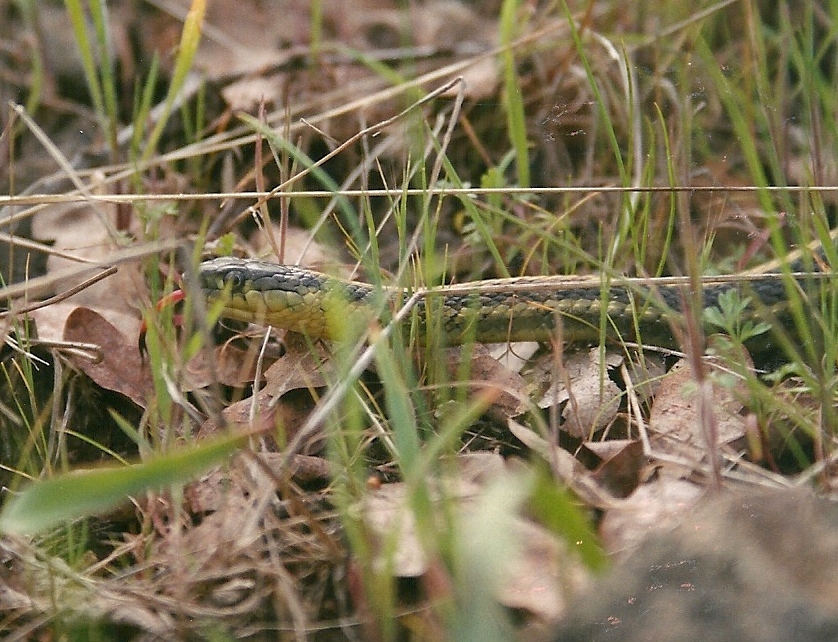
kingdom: Animalia
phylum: Chordata
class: Squamata
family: Colubridae
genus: Thamnophis
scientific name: Thamnophis atratus
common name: Pacific coast aquatic garter snake
